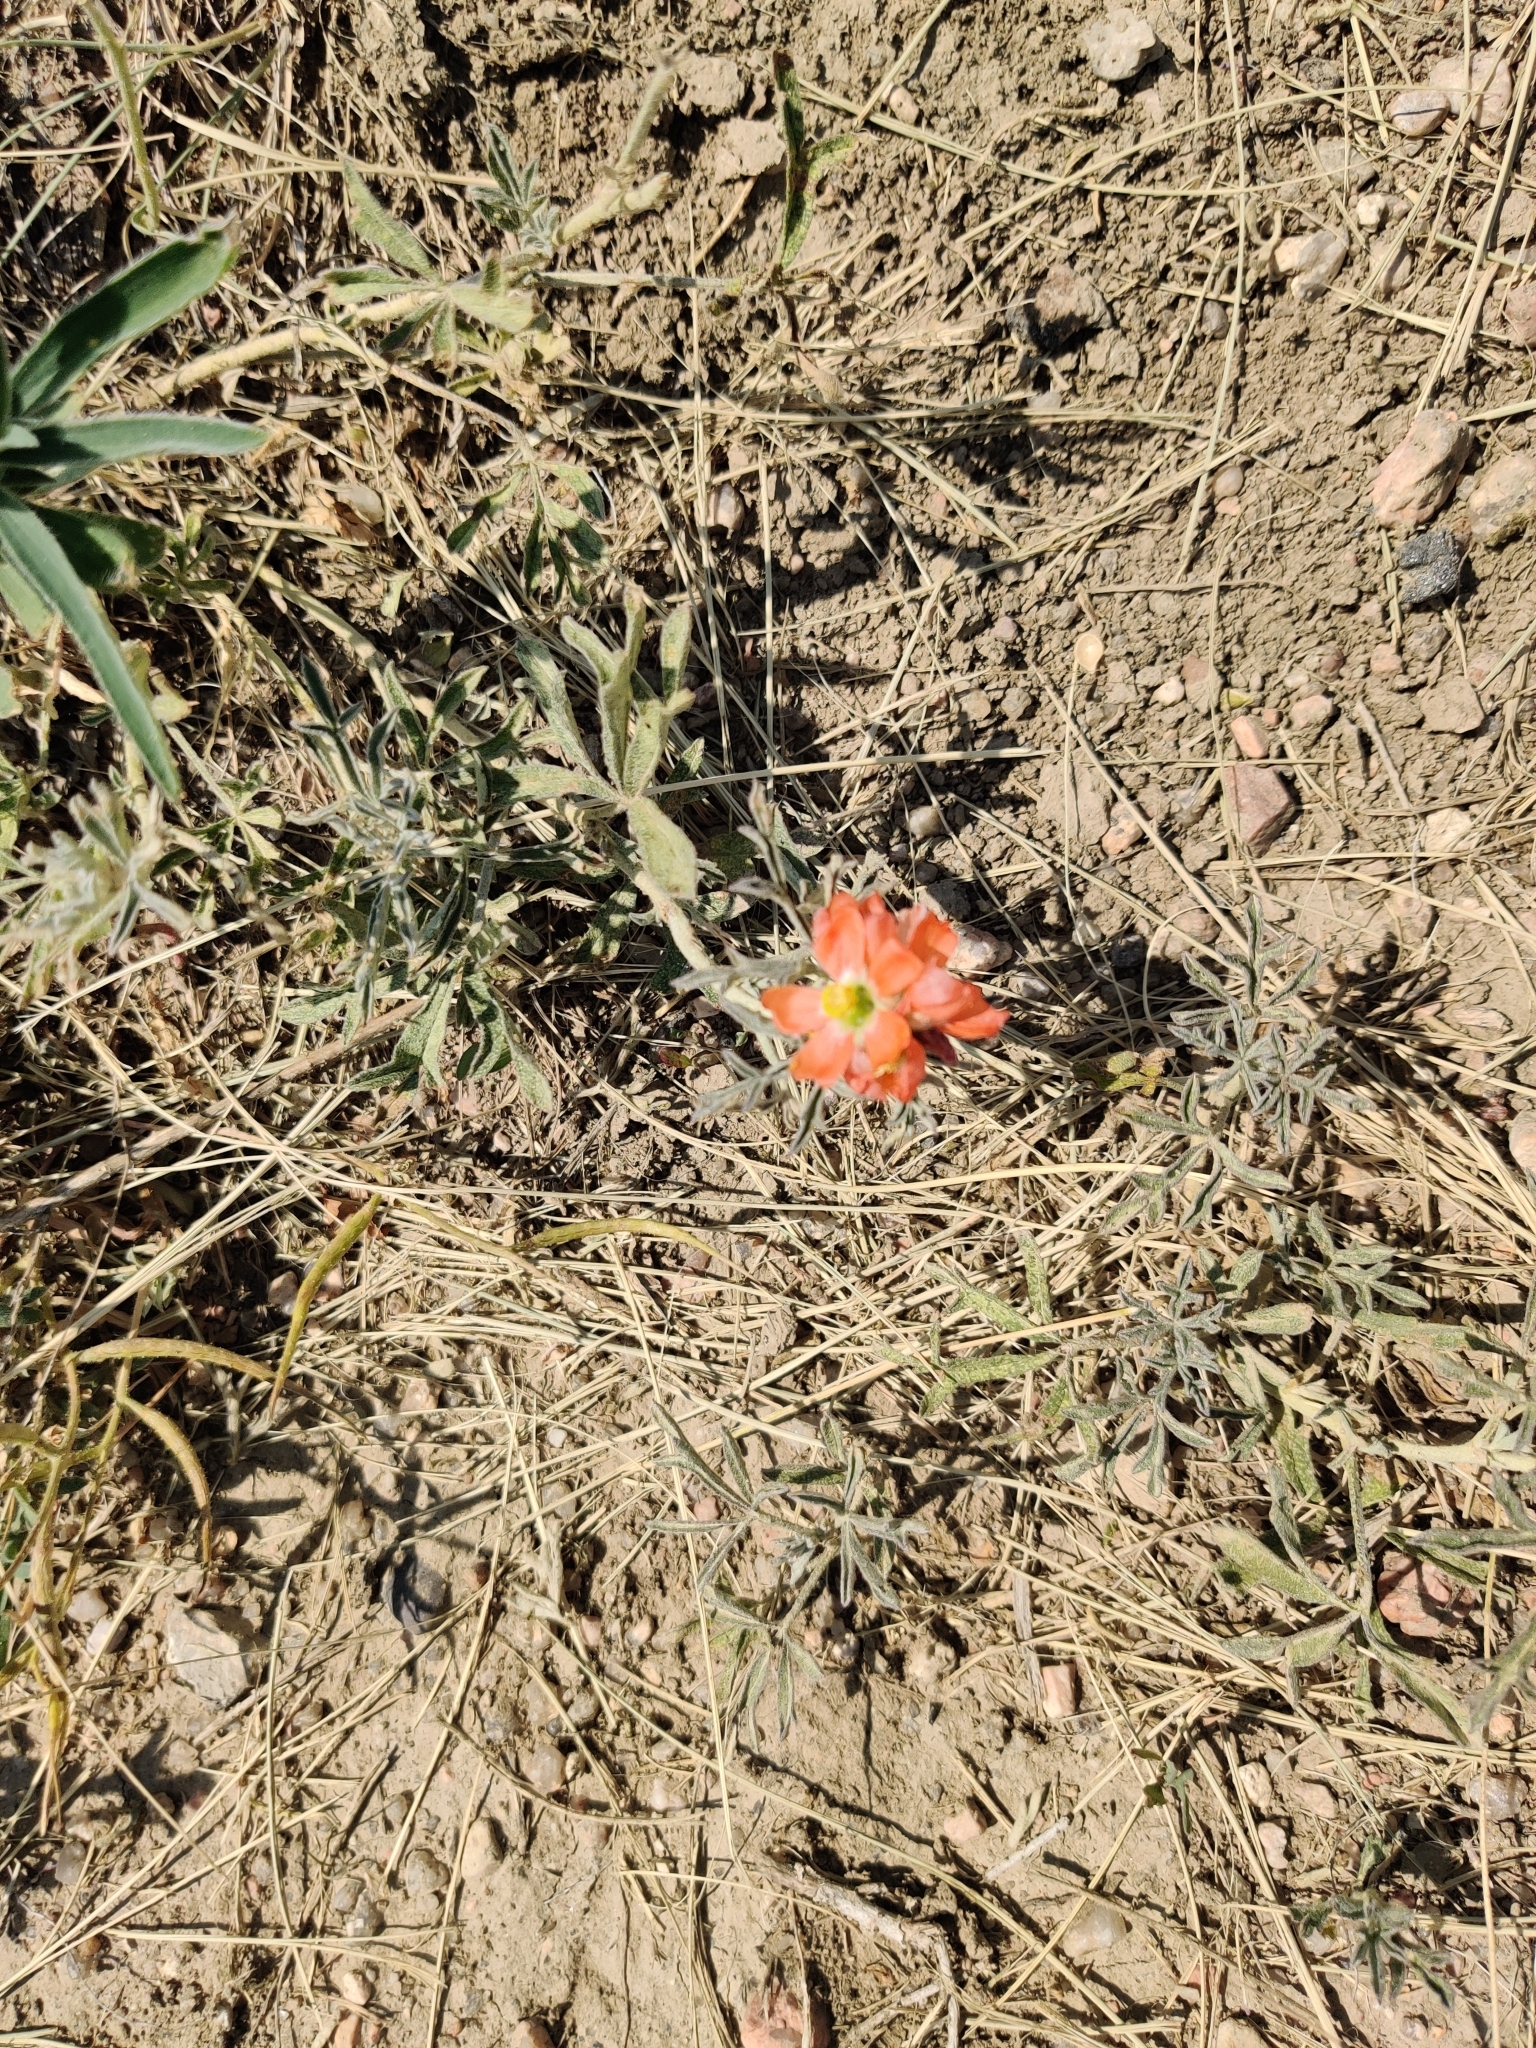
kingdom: Plantae
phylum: Tracheophyta
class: Magnoliopsida
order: Malvales
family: Malvaceae
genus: Sphaeralcea
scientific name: Sphaeralcea coccinea
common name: Moss-rose
